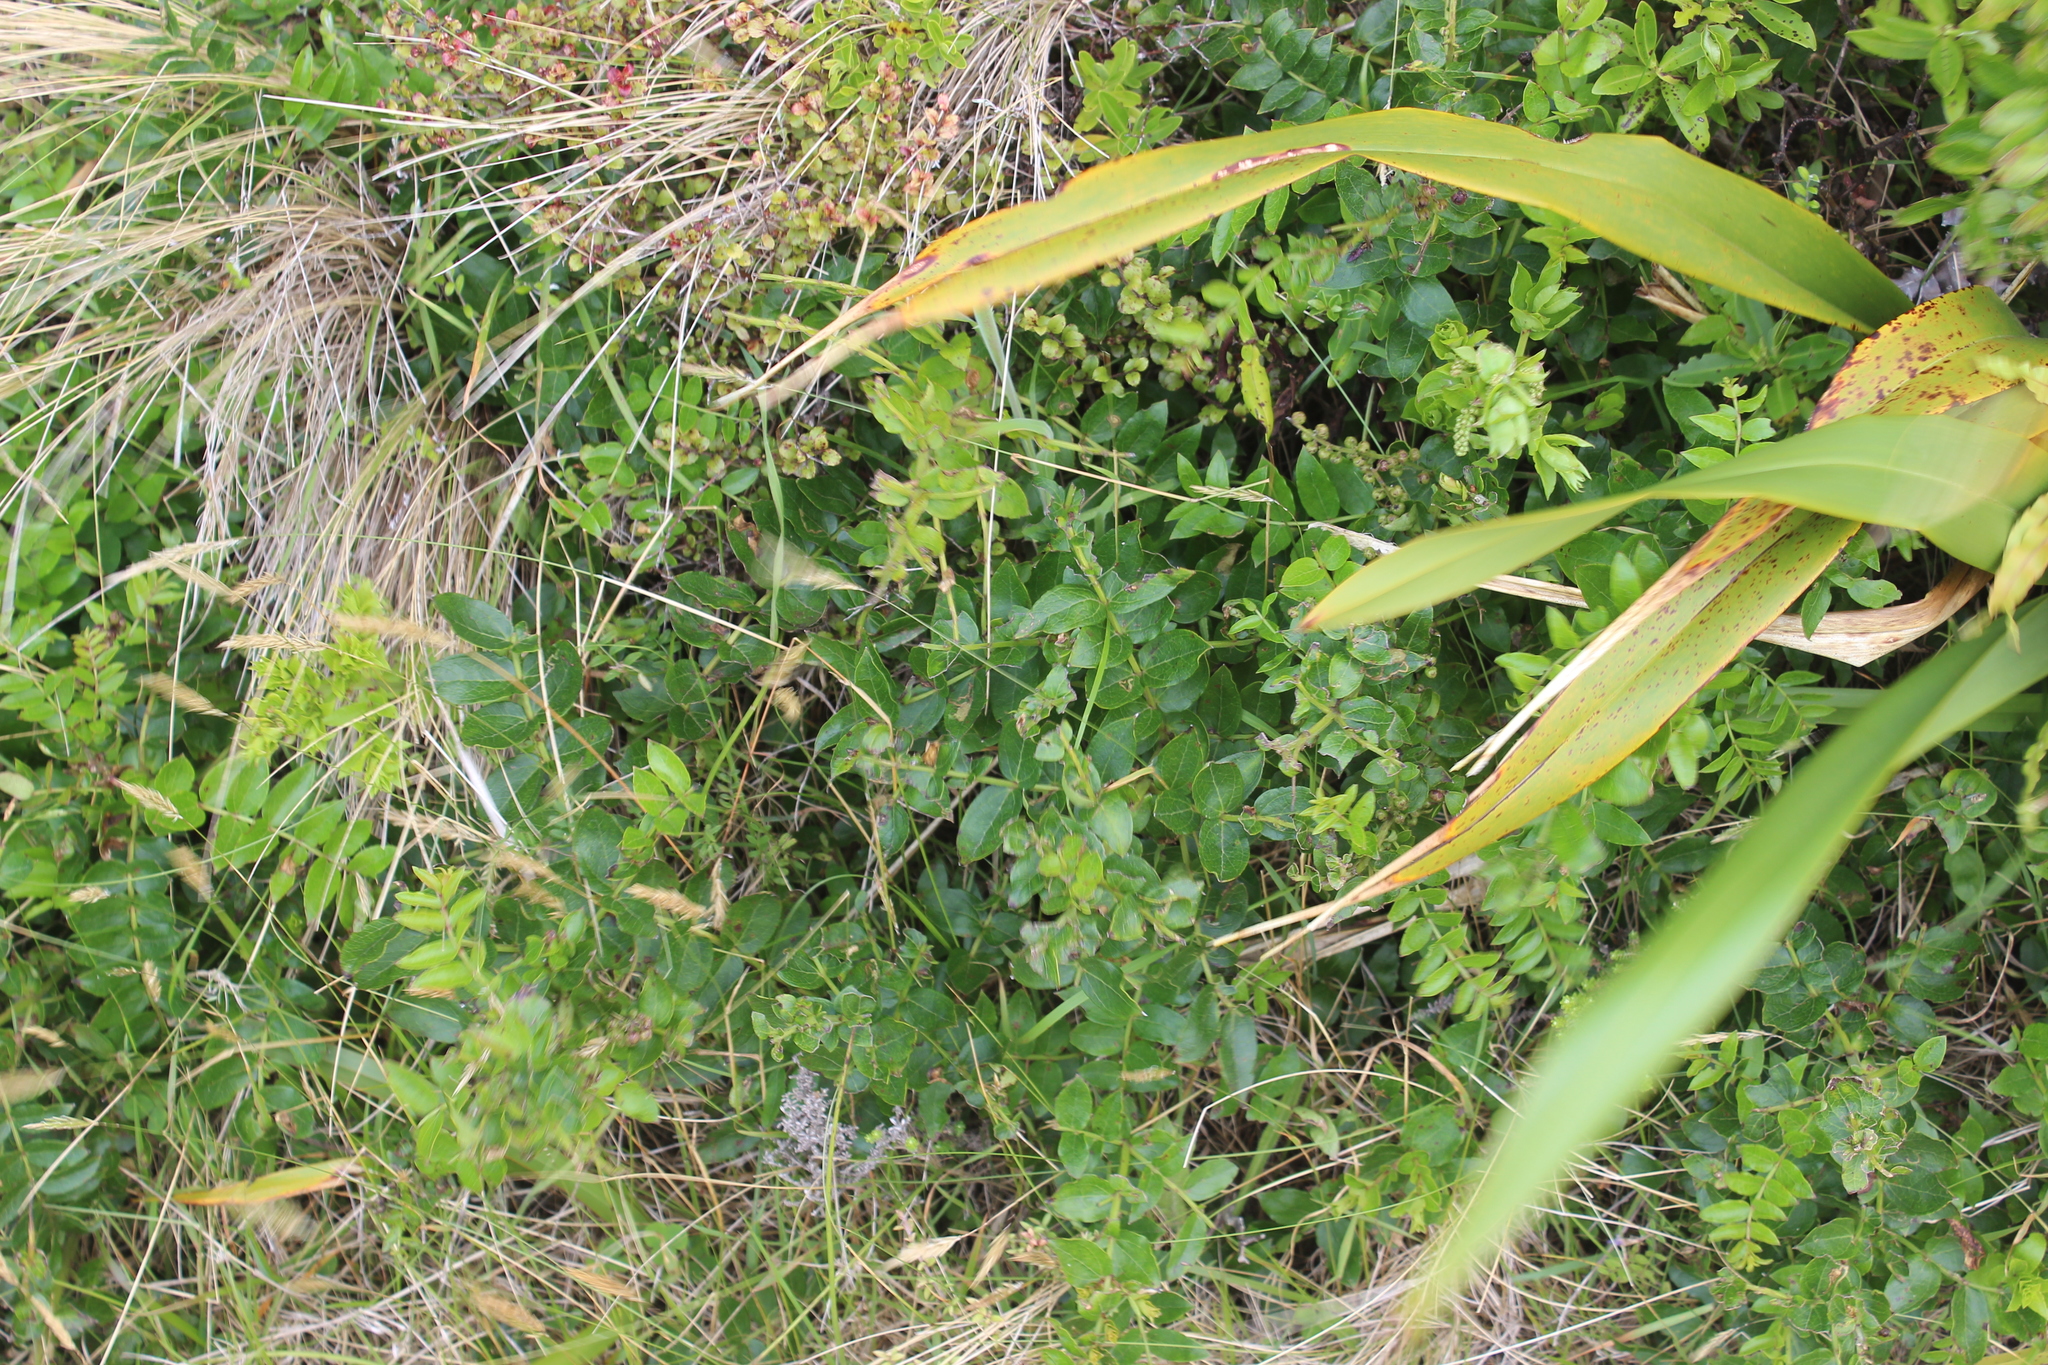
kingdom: Plantae
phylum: Tracheophyta
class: Magnoliopsida
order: Cucurbitales
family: Coriariaceae
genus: Coriaria
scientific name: Coriaria sarmentosa
